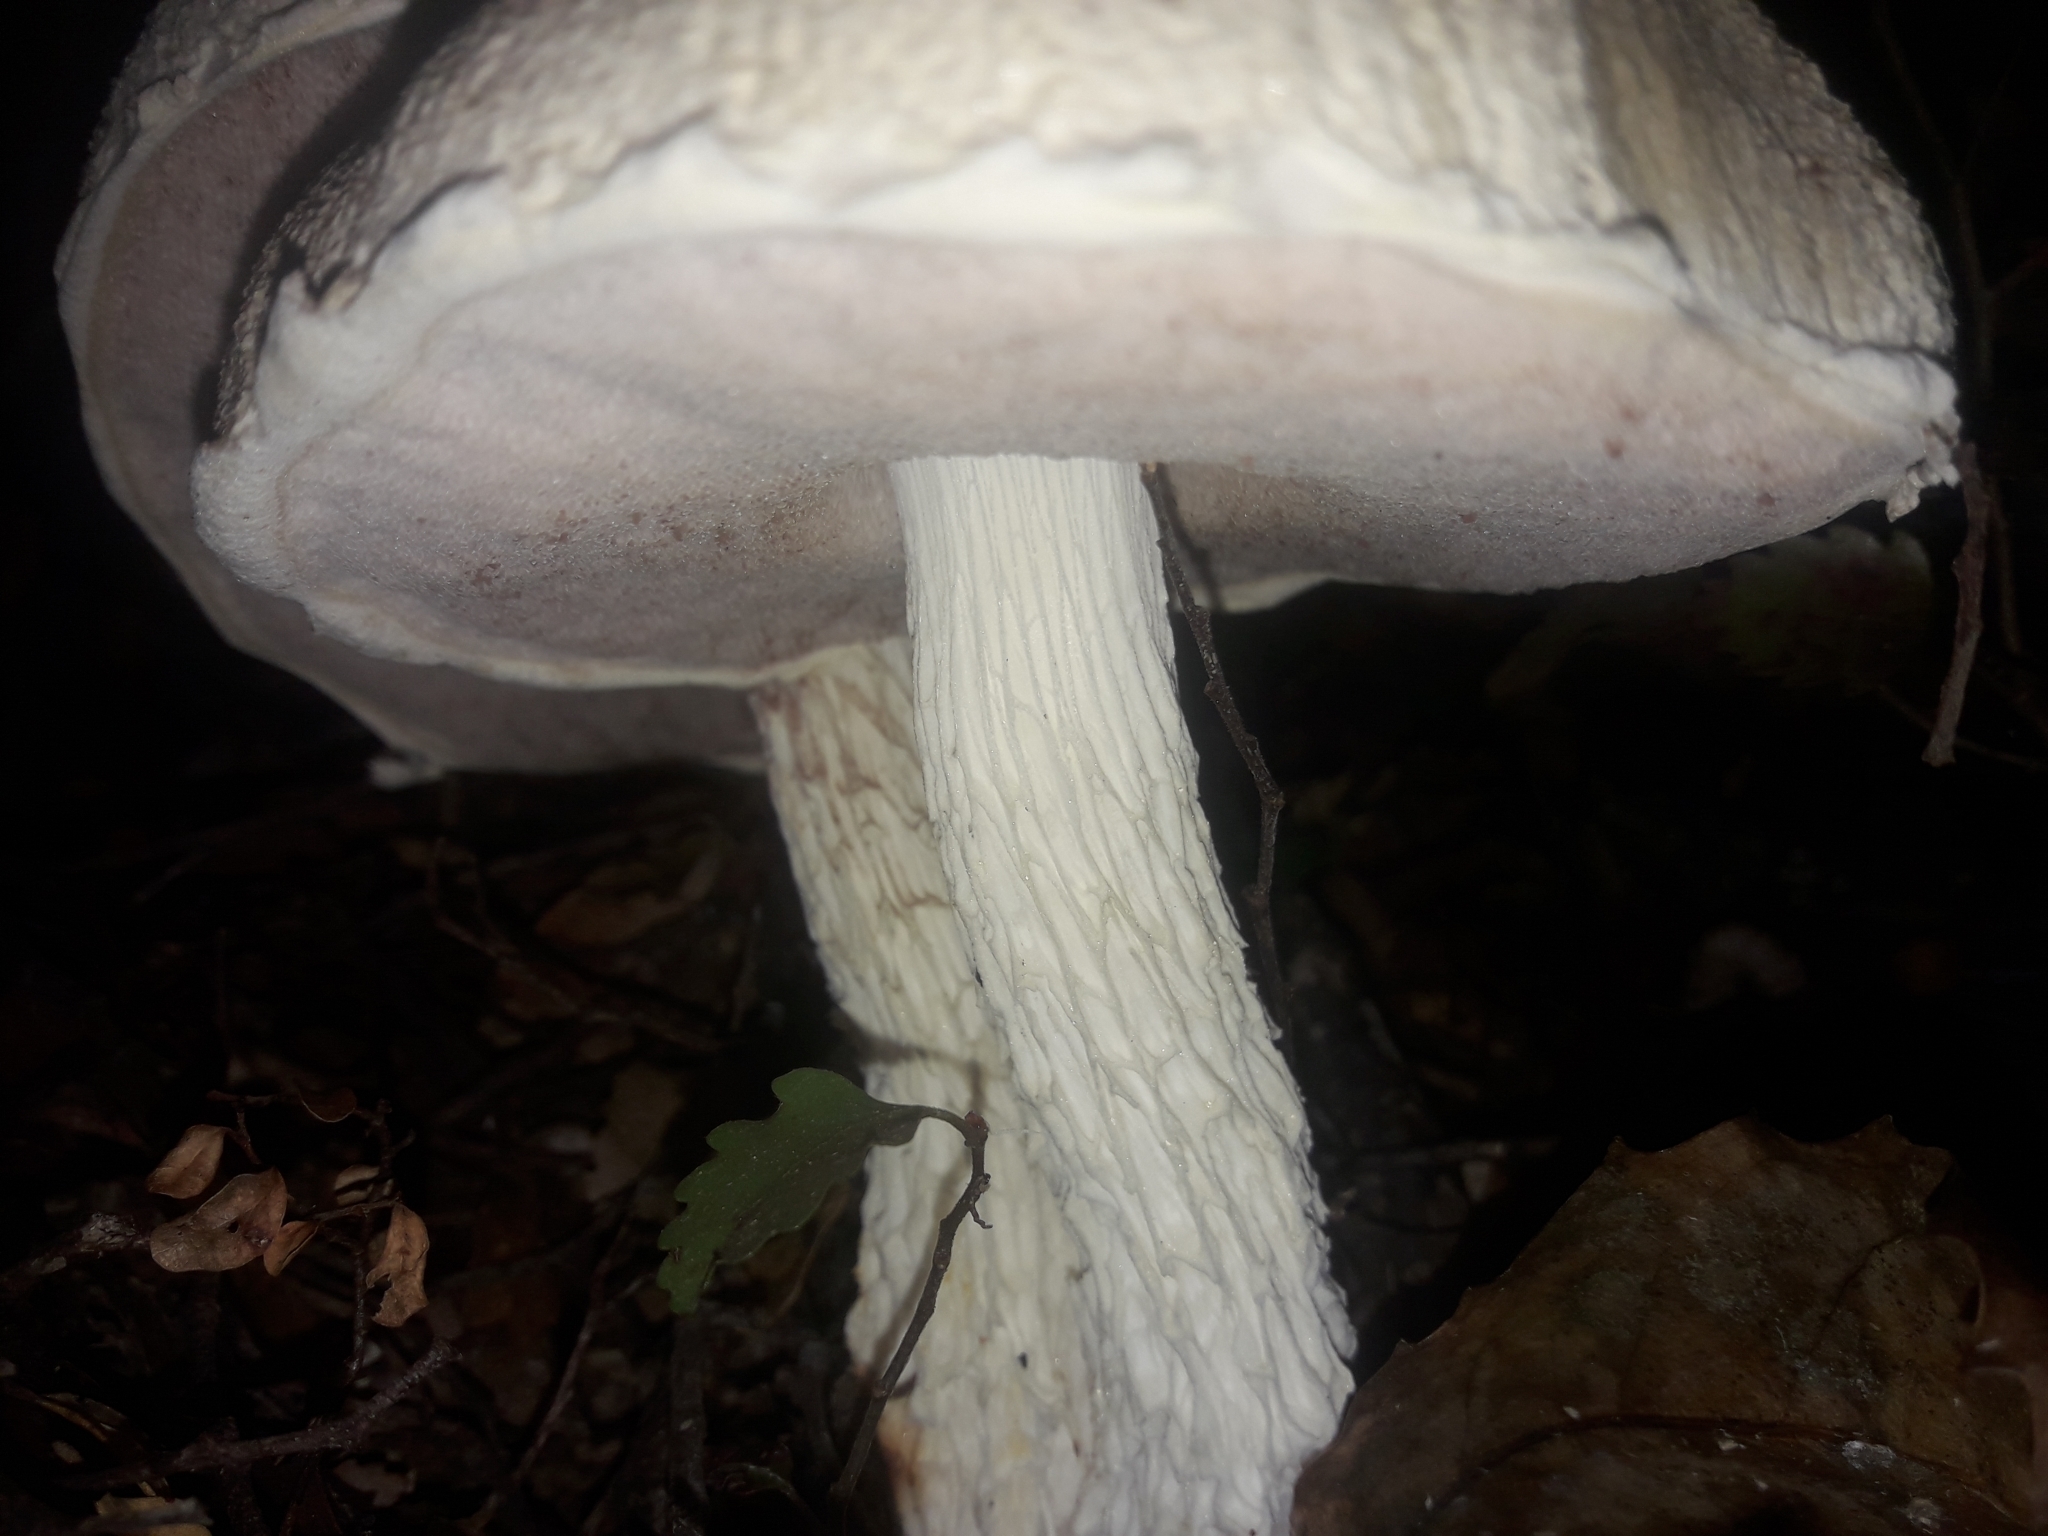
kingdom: Fungi
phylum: Basidiomycota
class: Agaricomycetes
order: Boletales
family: Boletaceae
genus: Fistulinella
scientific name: Fistulinella nivea
